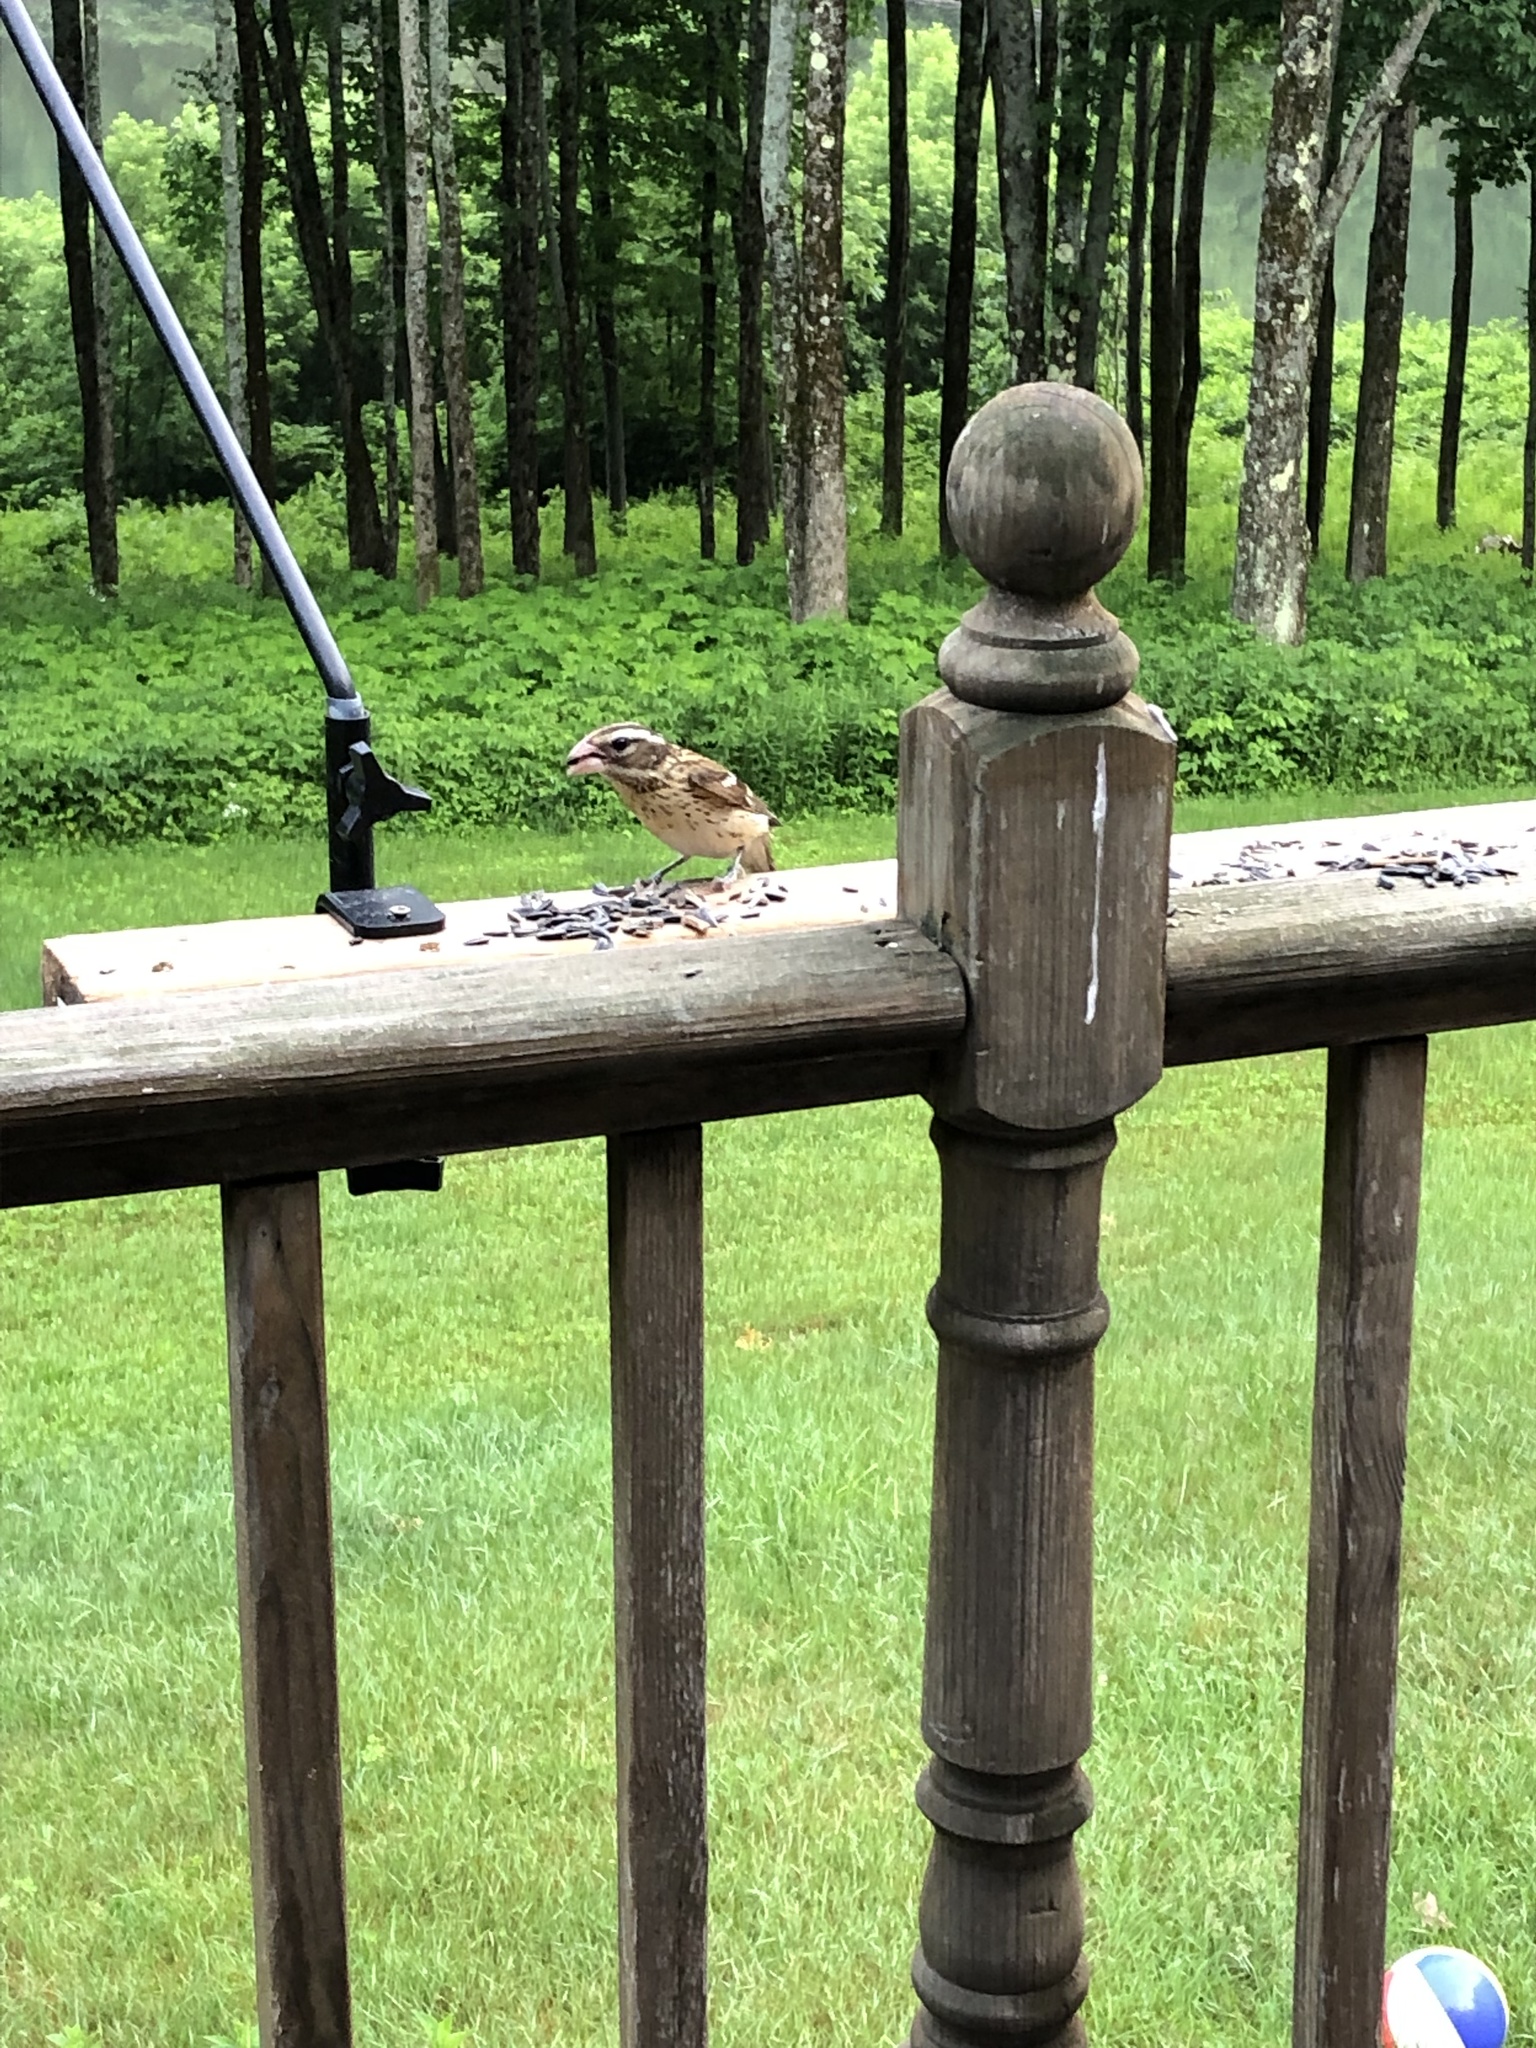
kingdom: Animalia
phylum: Chordata
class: Aves
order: Passeriformes
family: Cardinalidae
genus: Pheucticus
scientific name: Pheucticus ludovicianus
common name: Rose-breasted grosbeak
